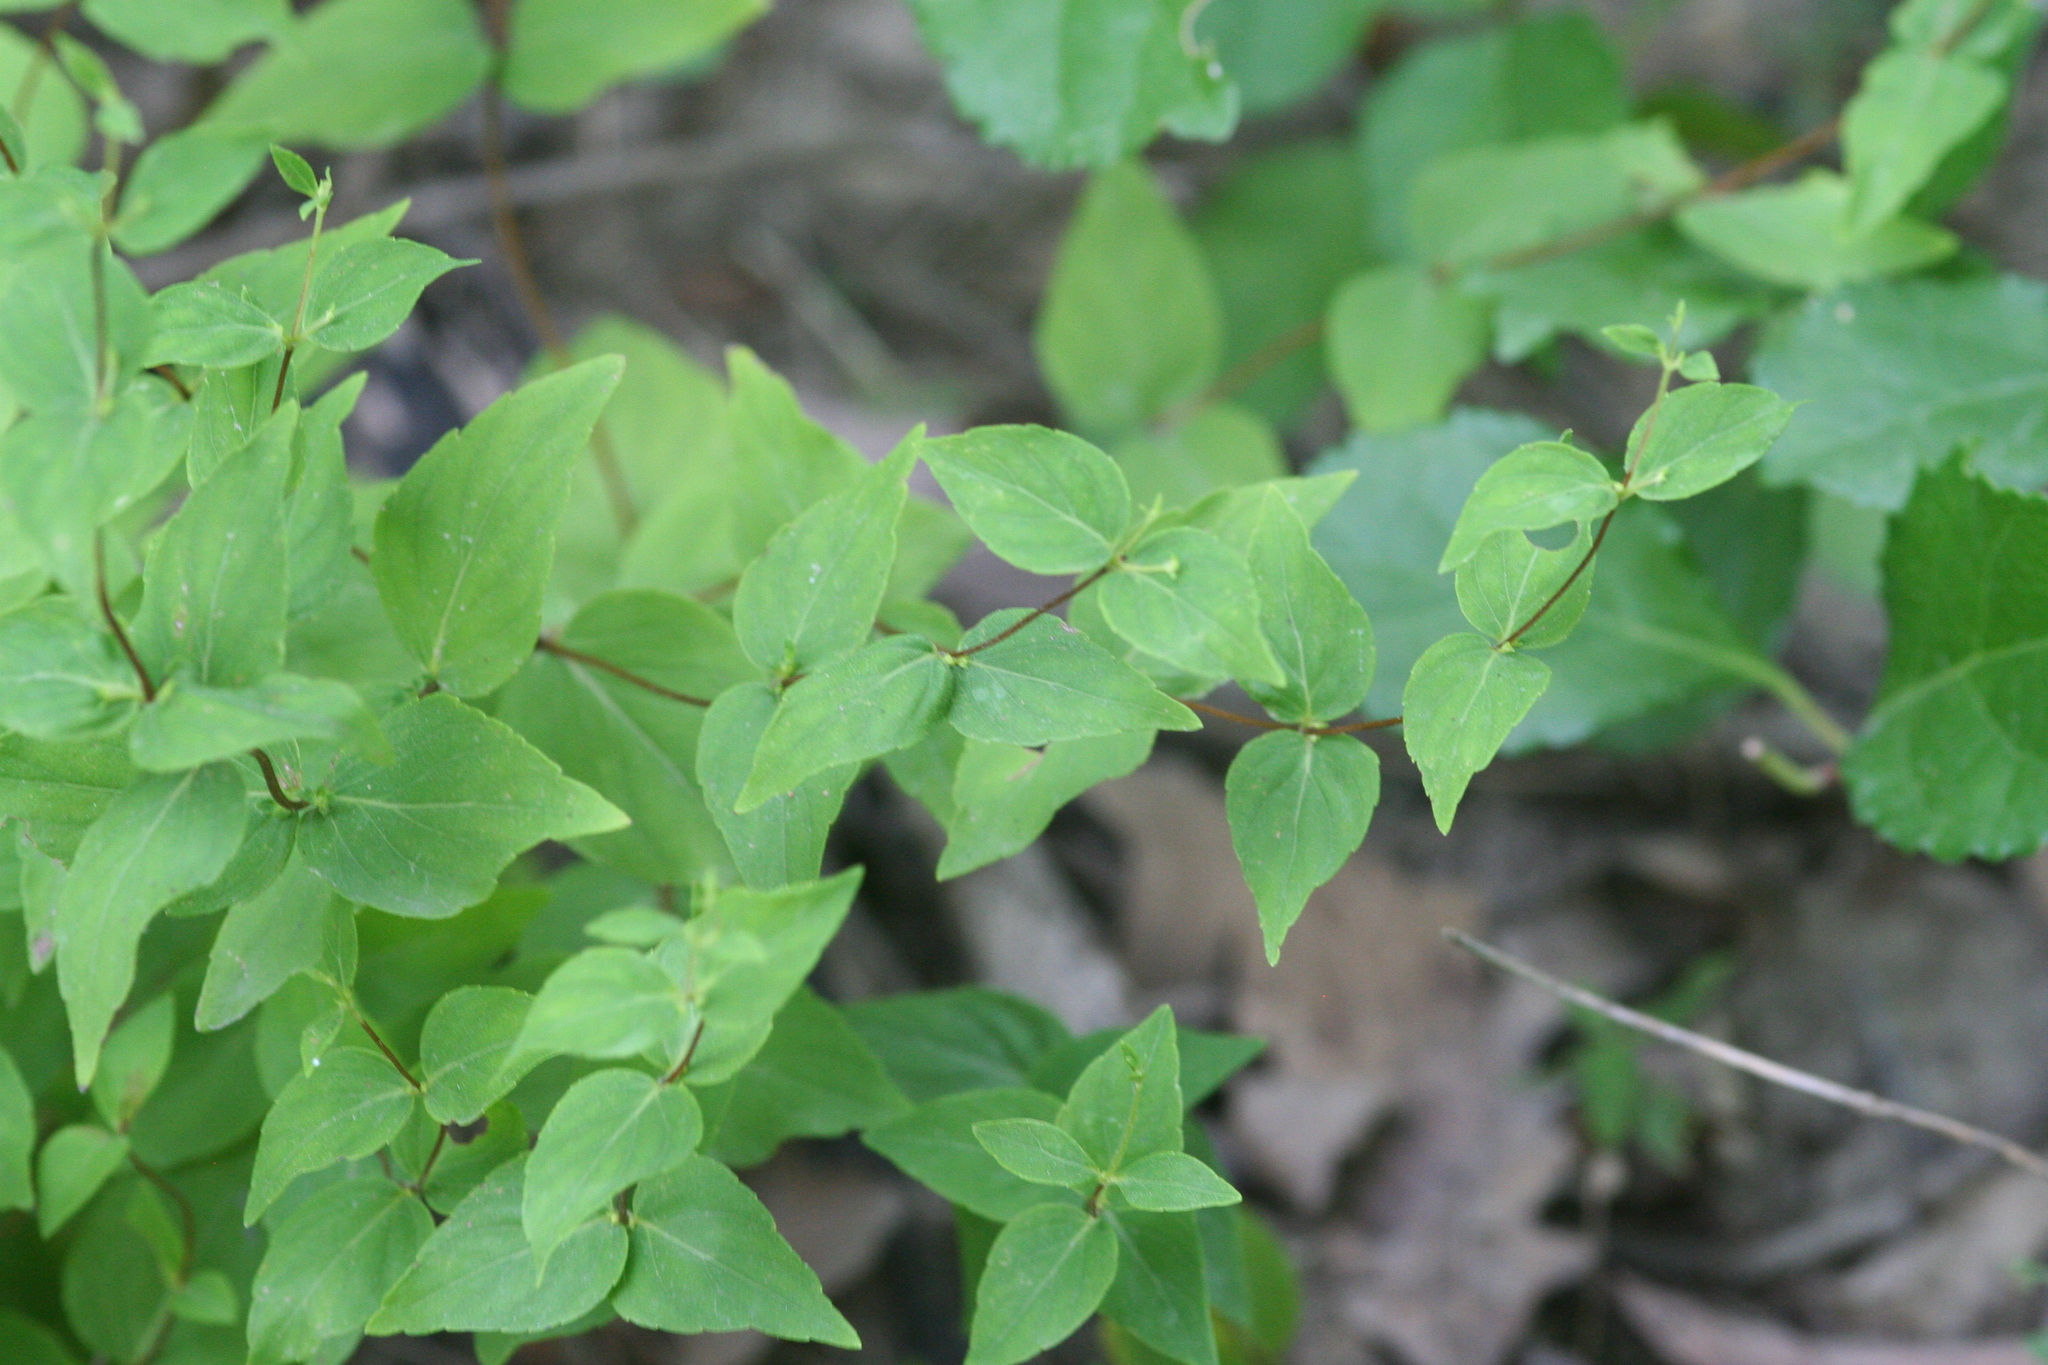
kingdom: Plantae
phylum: Tracheophyta
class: Magnoliopsida
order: Lamiales
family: Lamiaceae
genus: Cunila
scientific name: Cunila origanoides
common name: American dittany
